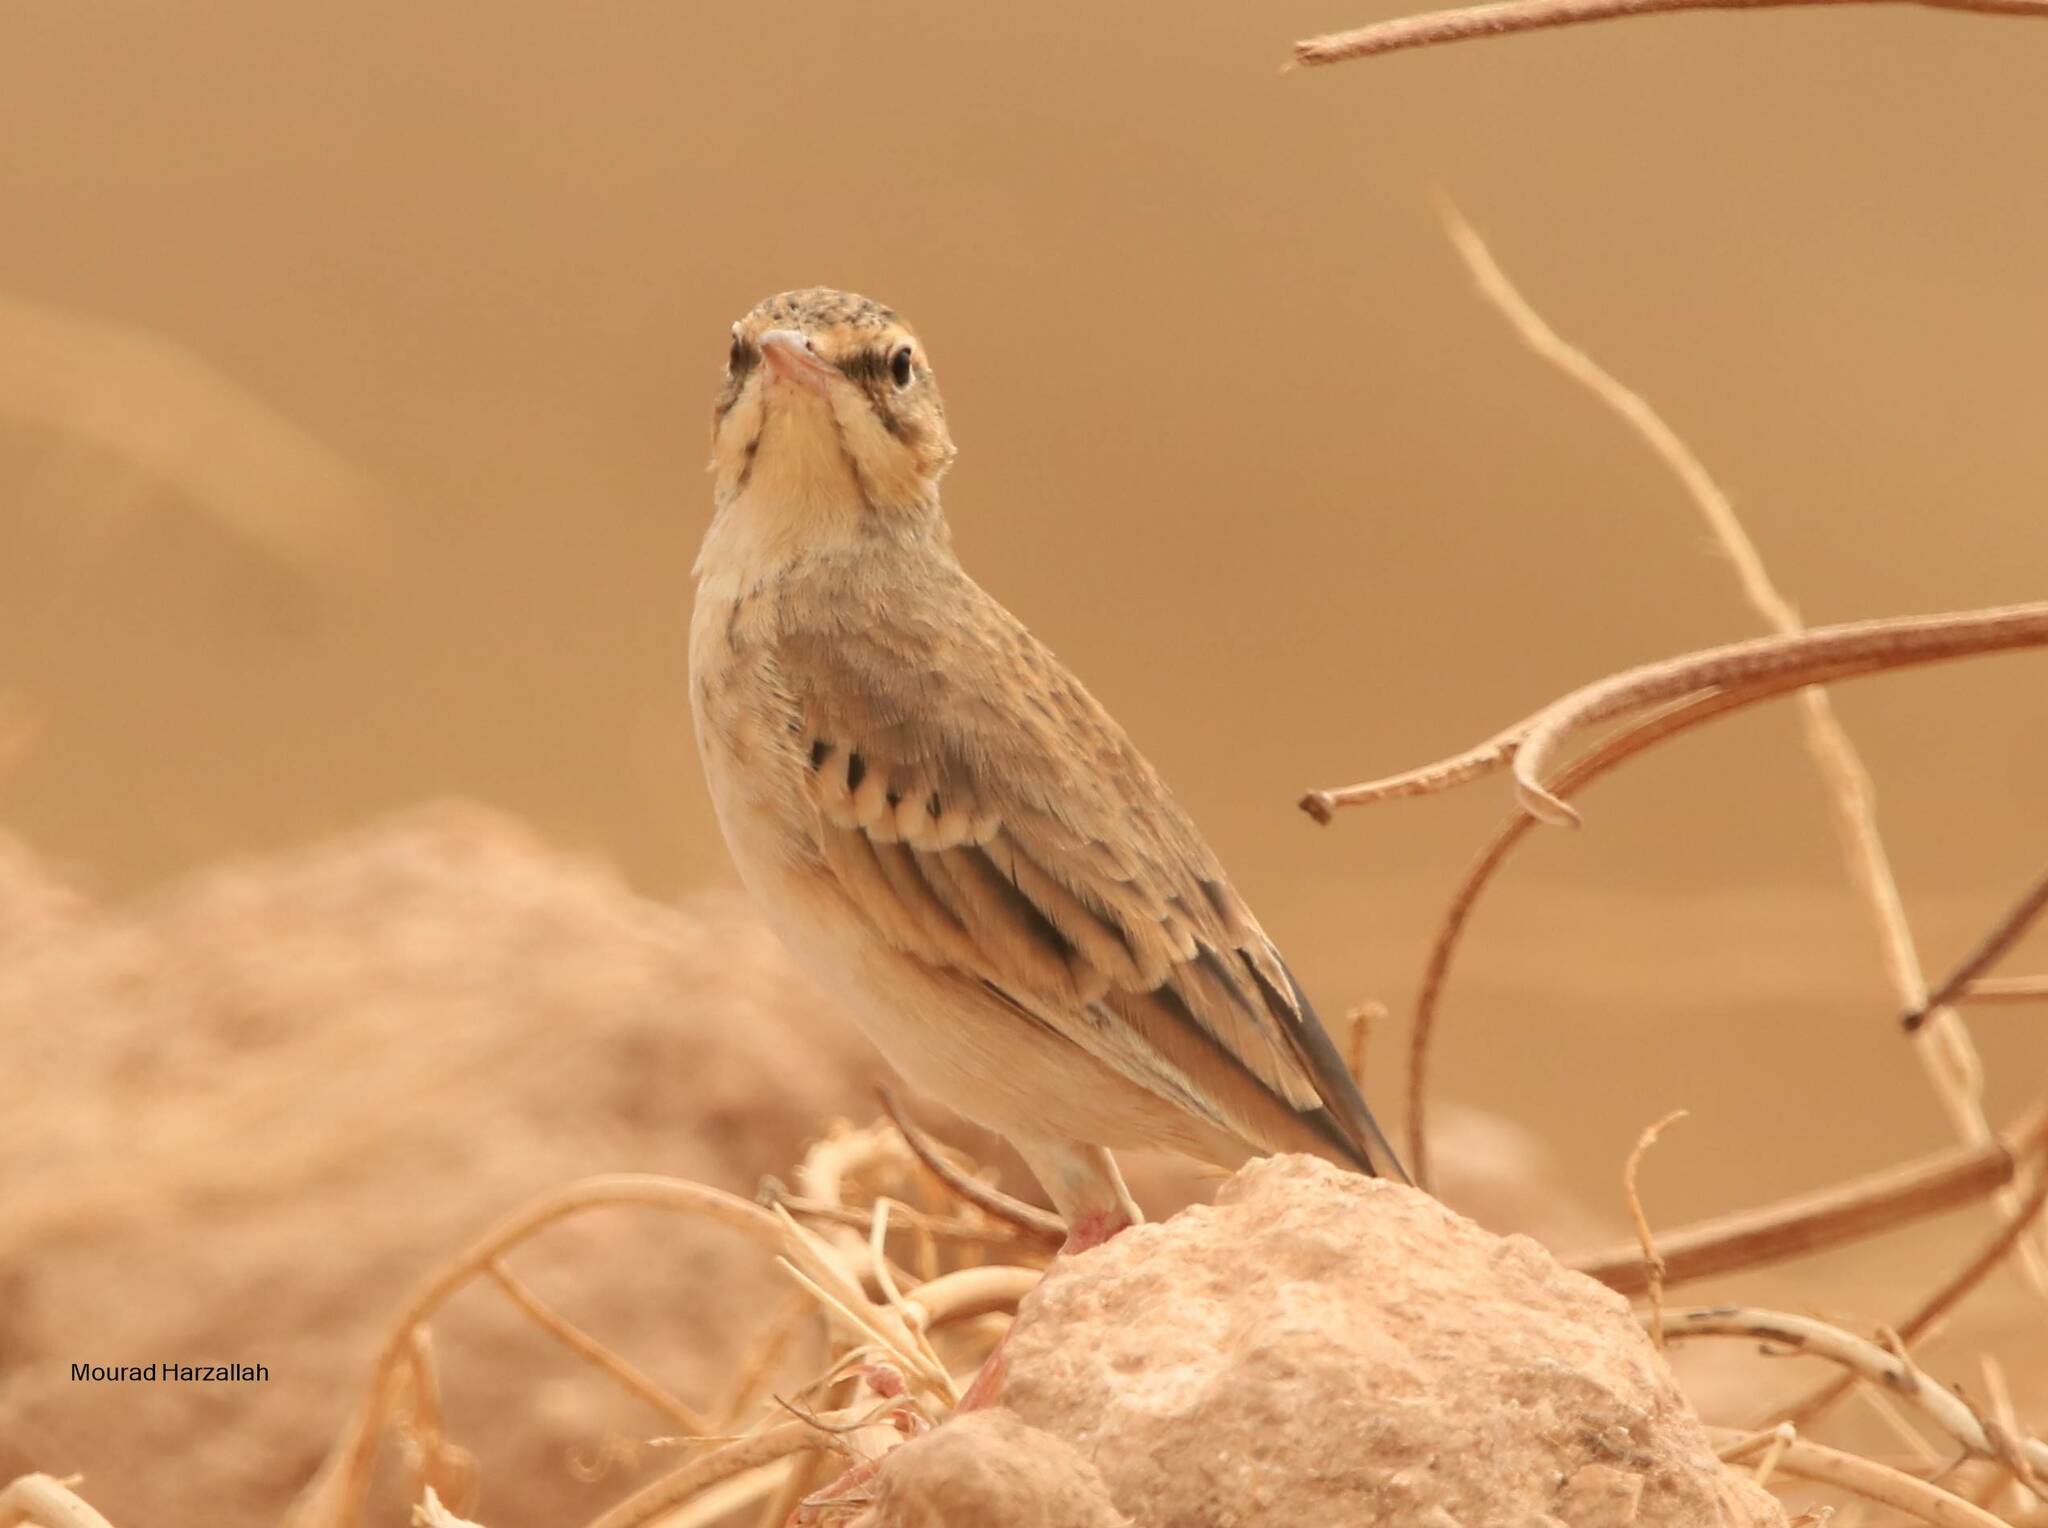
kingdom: Animalia
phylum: Chordata
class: Aves
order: Passeriformes
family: Motacillidae
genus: Anthus
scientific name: Anthus campestris
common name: Tawny pipit
